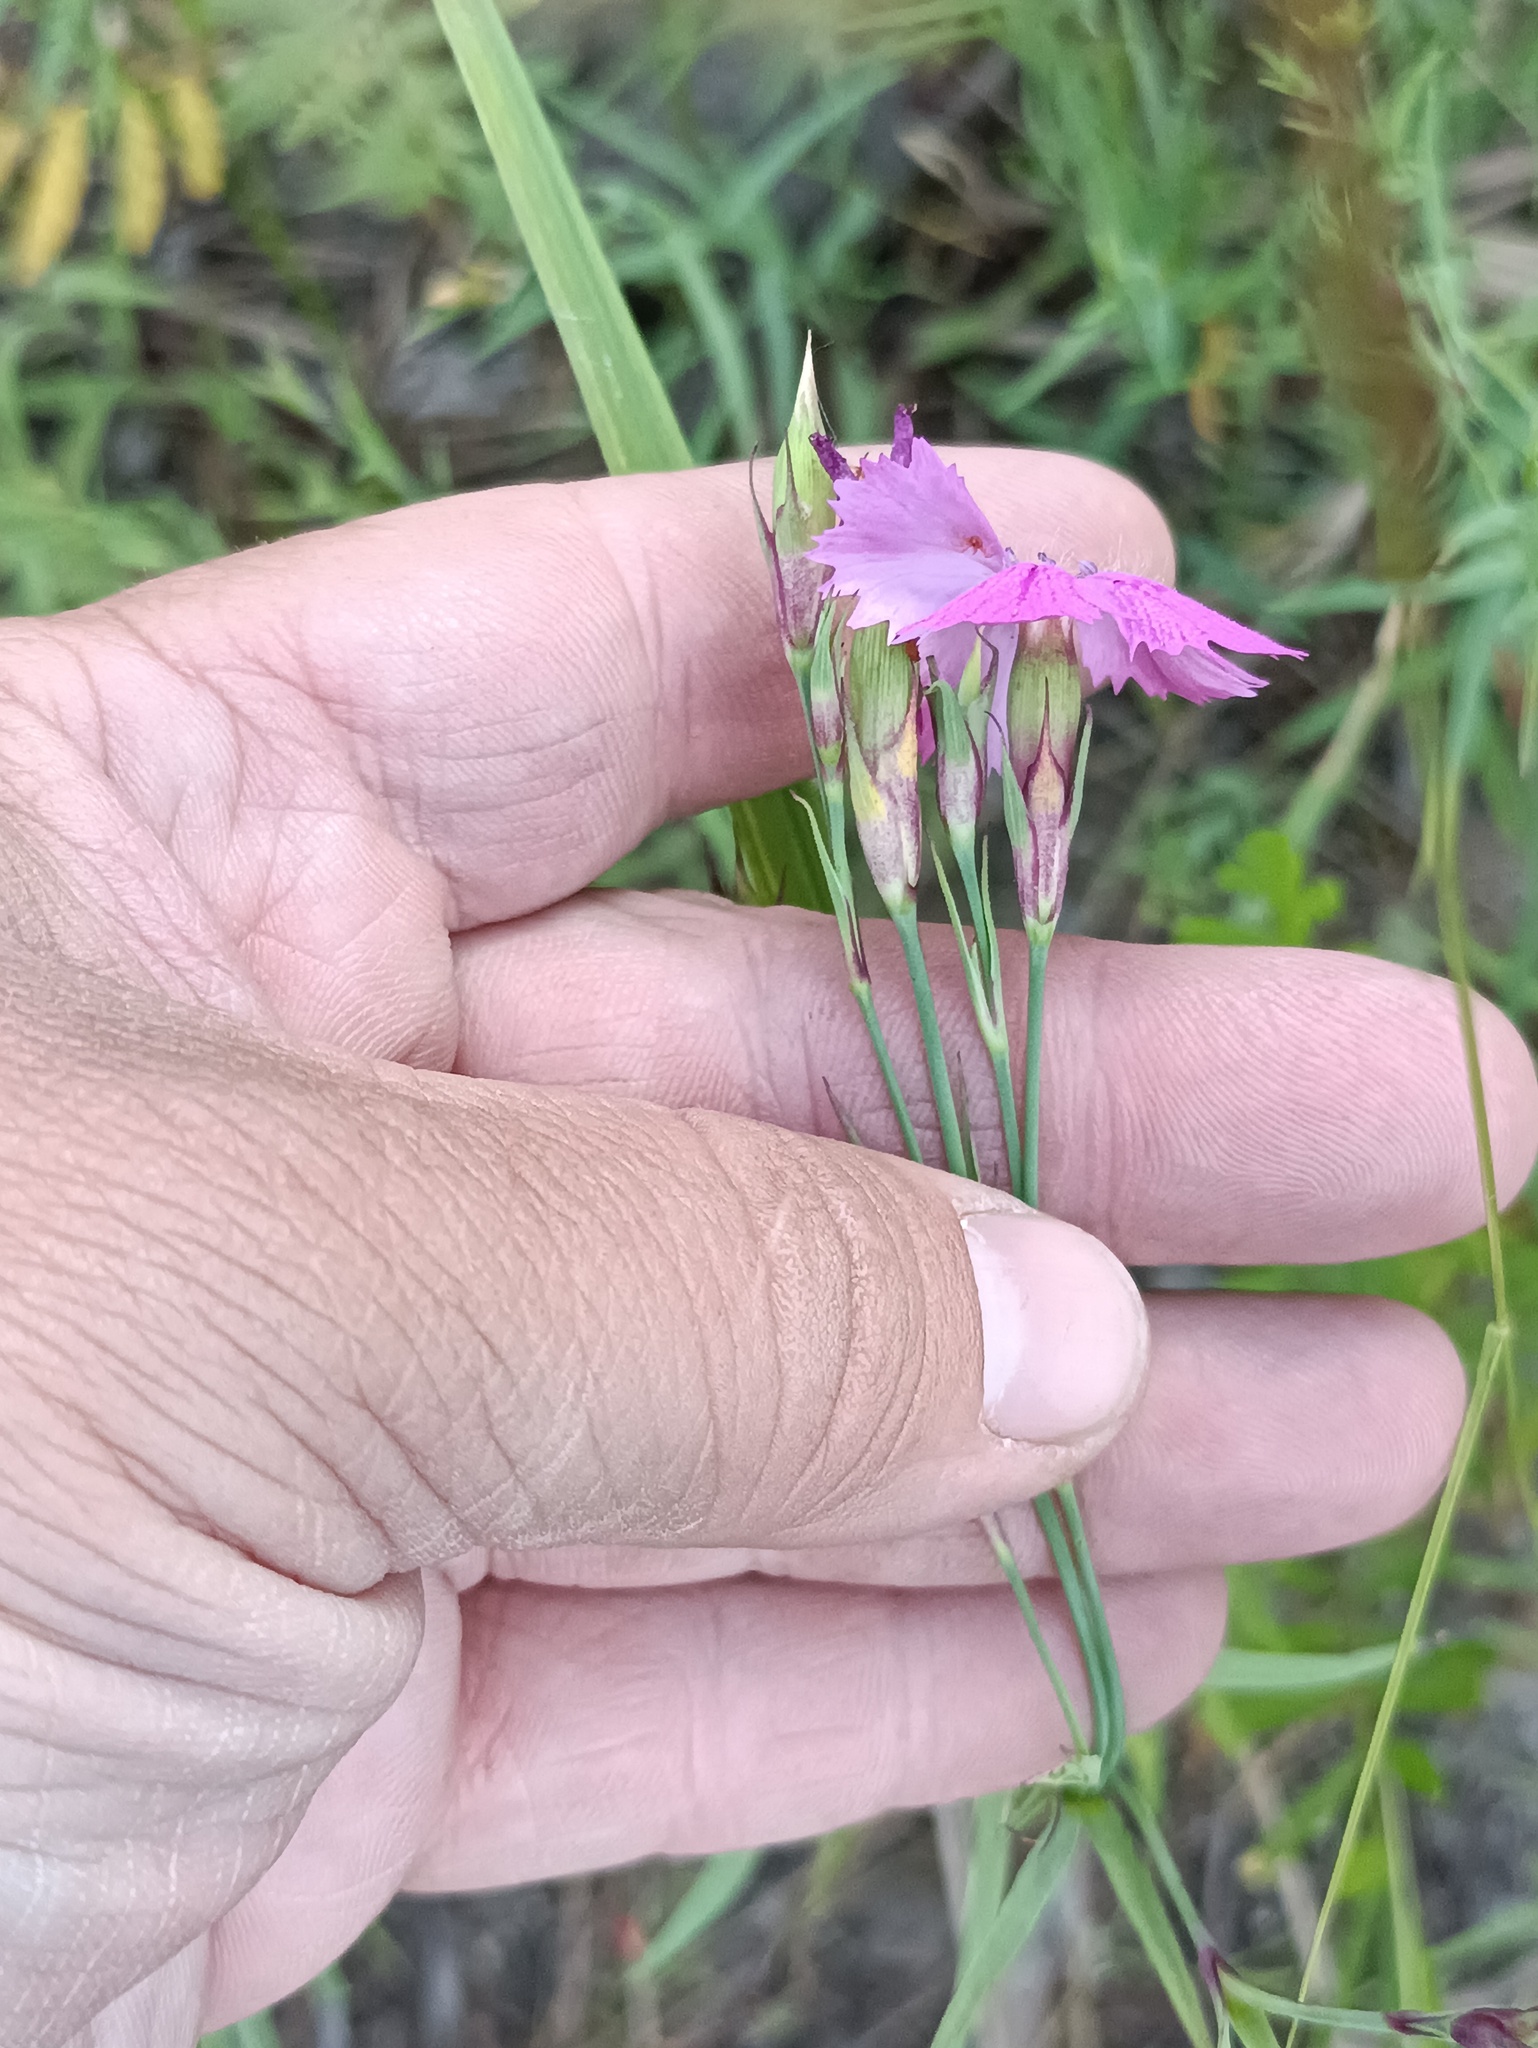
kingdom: Plantae
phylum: Tracheophyta
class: Magnoliopsida
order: Caryophyllales
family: Caryophyllaceae
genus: Dianthus
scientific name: Dianthus chinensis
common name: Rainbow pink
